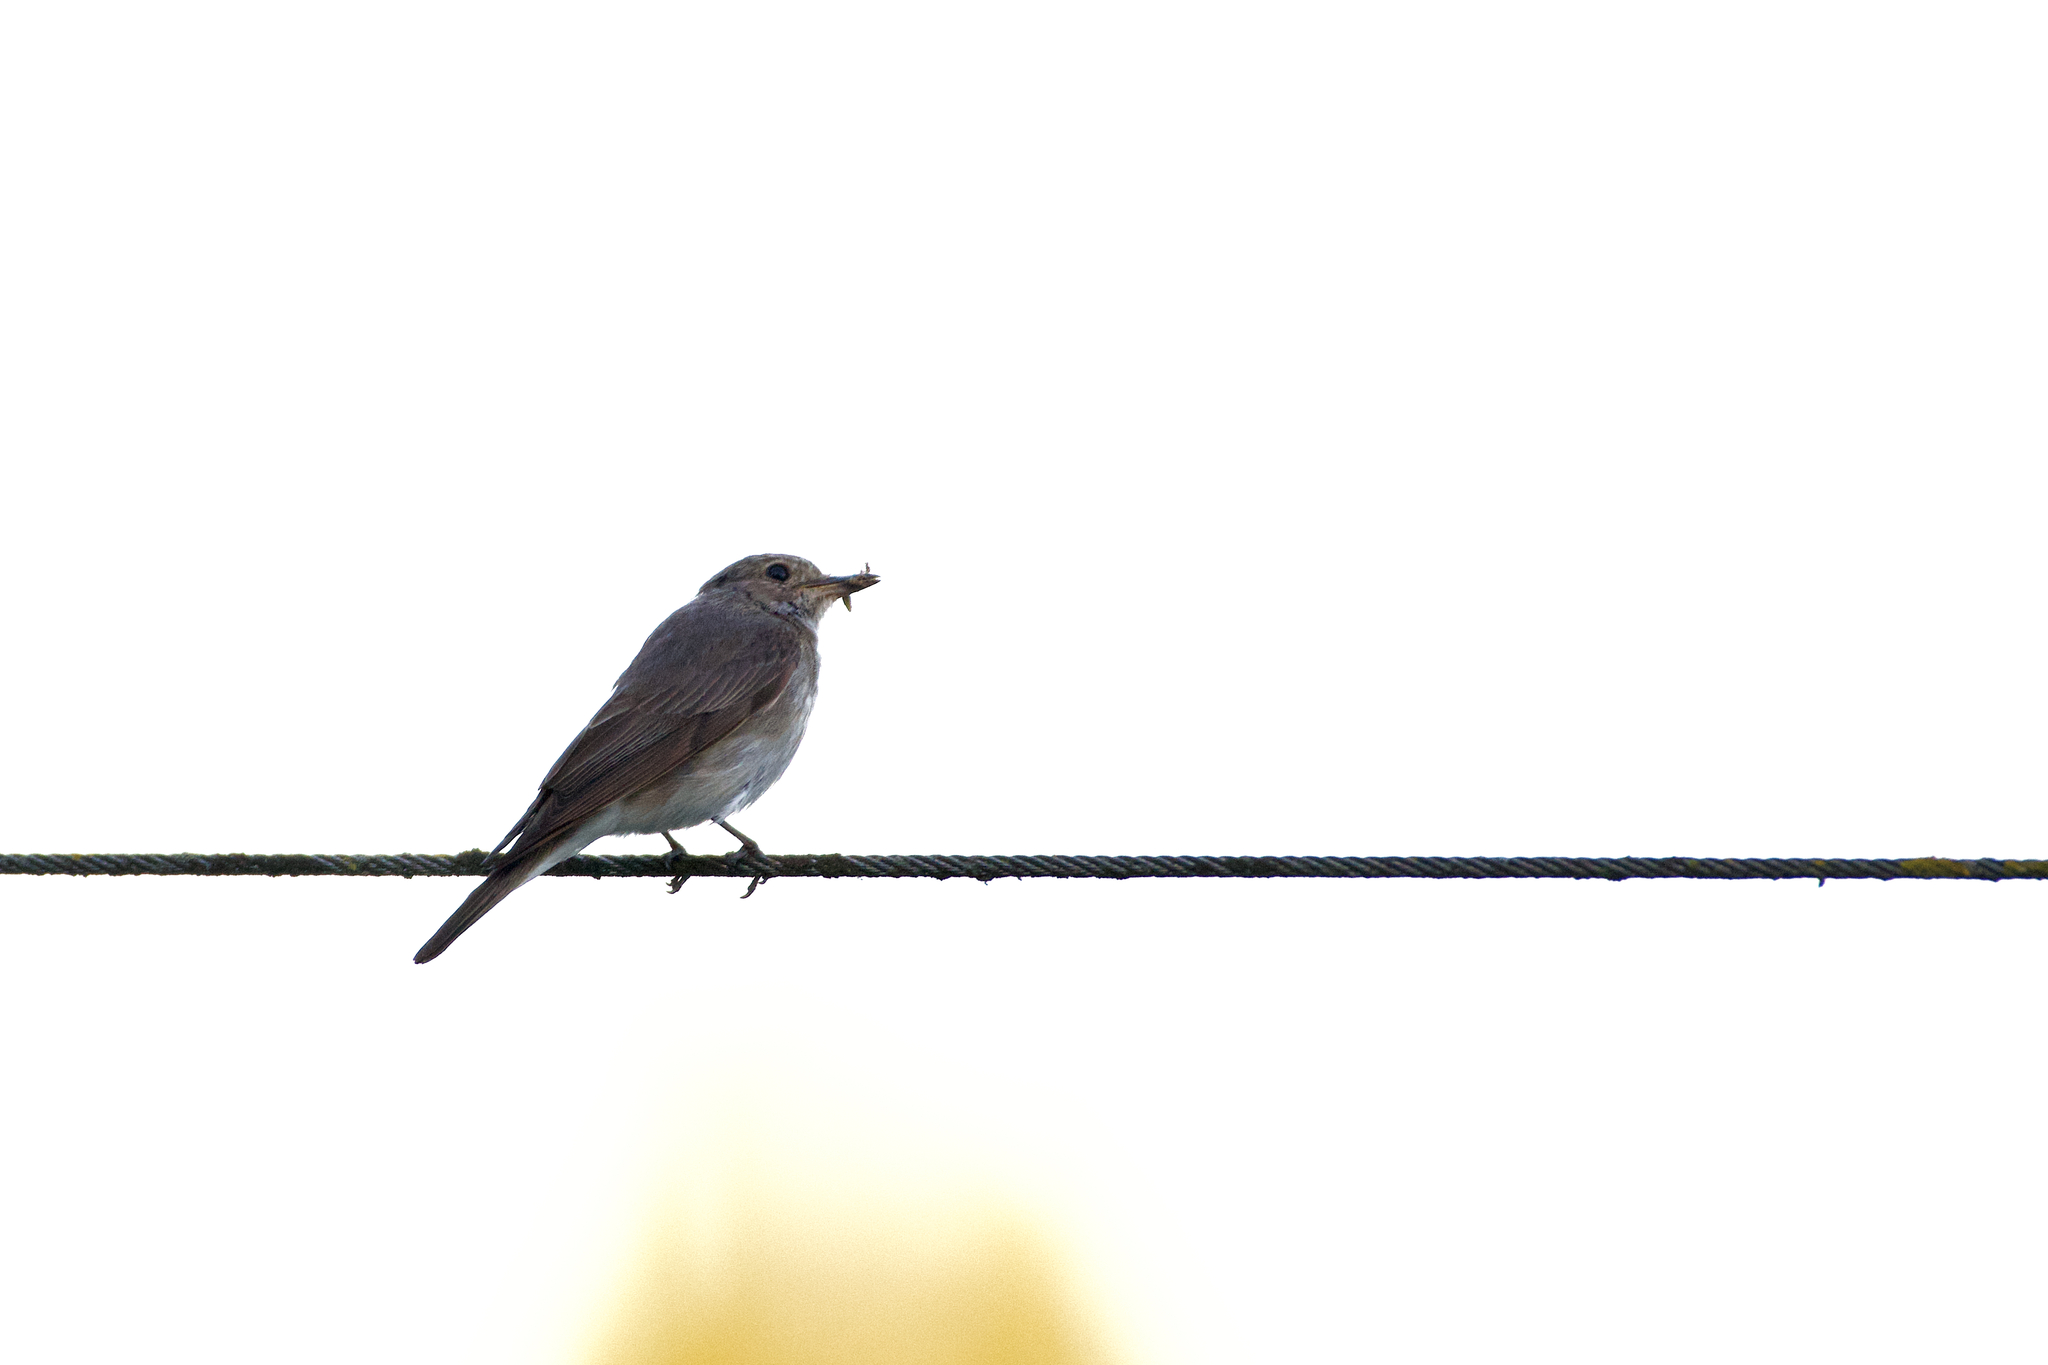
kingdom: Animalia
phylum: Chordata
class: Aves
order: Passeriformes
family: Muscicapidae
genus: Muscicapa
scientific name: Muscicapa striata
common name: Spotted flycatcher
